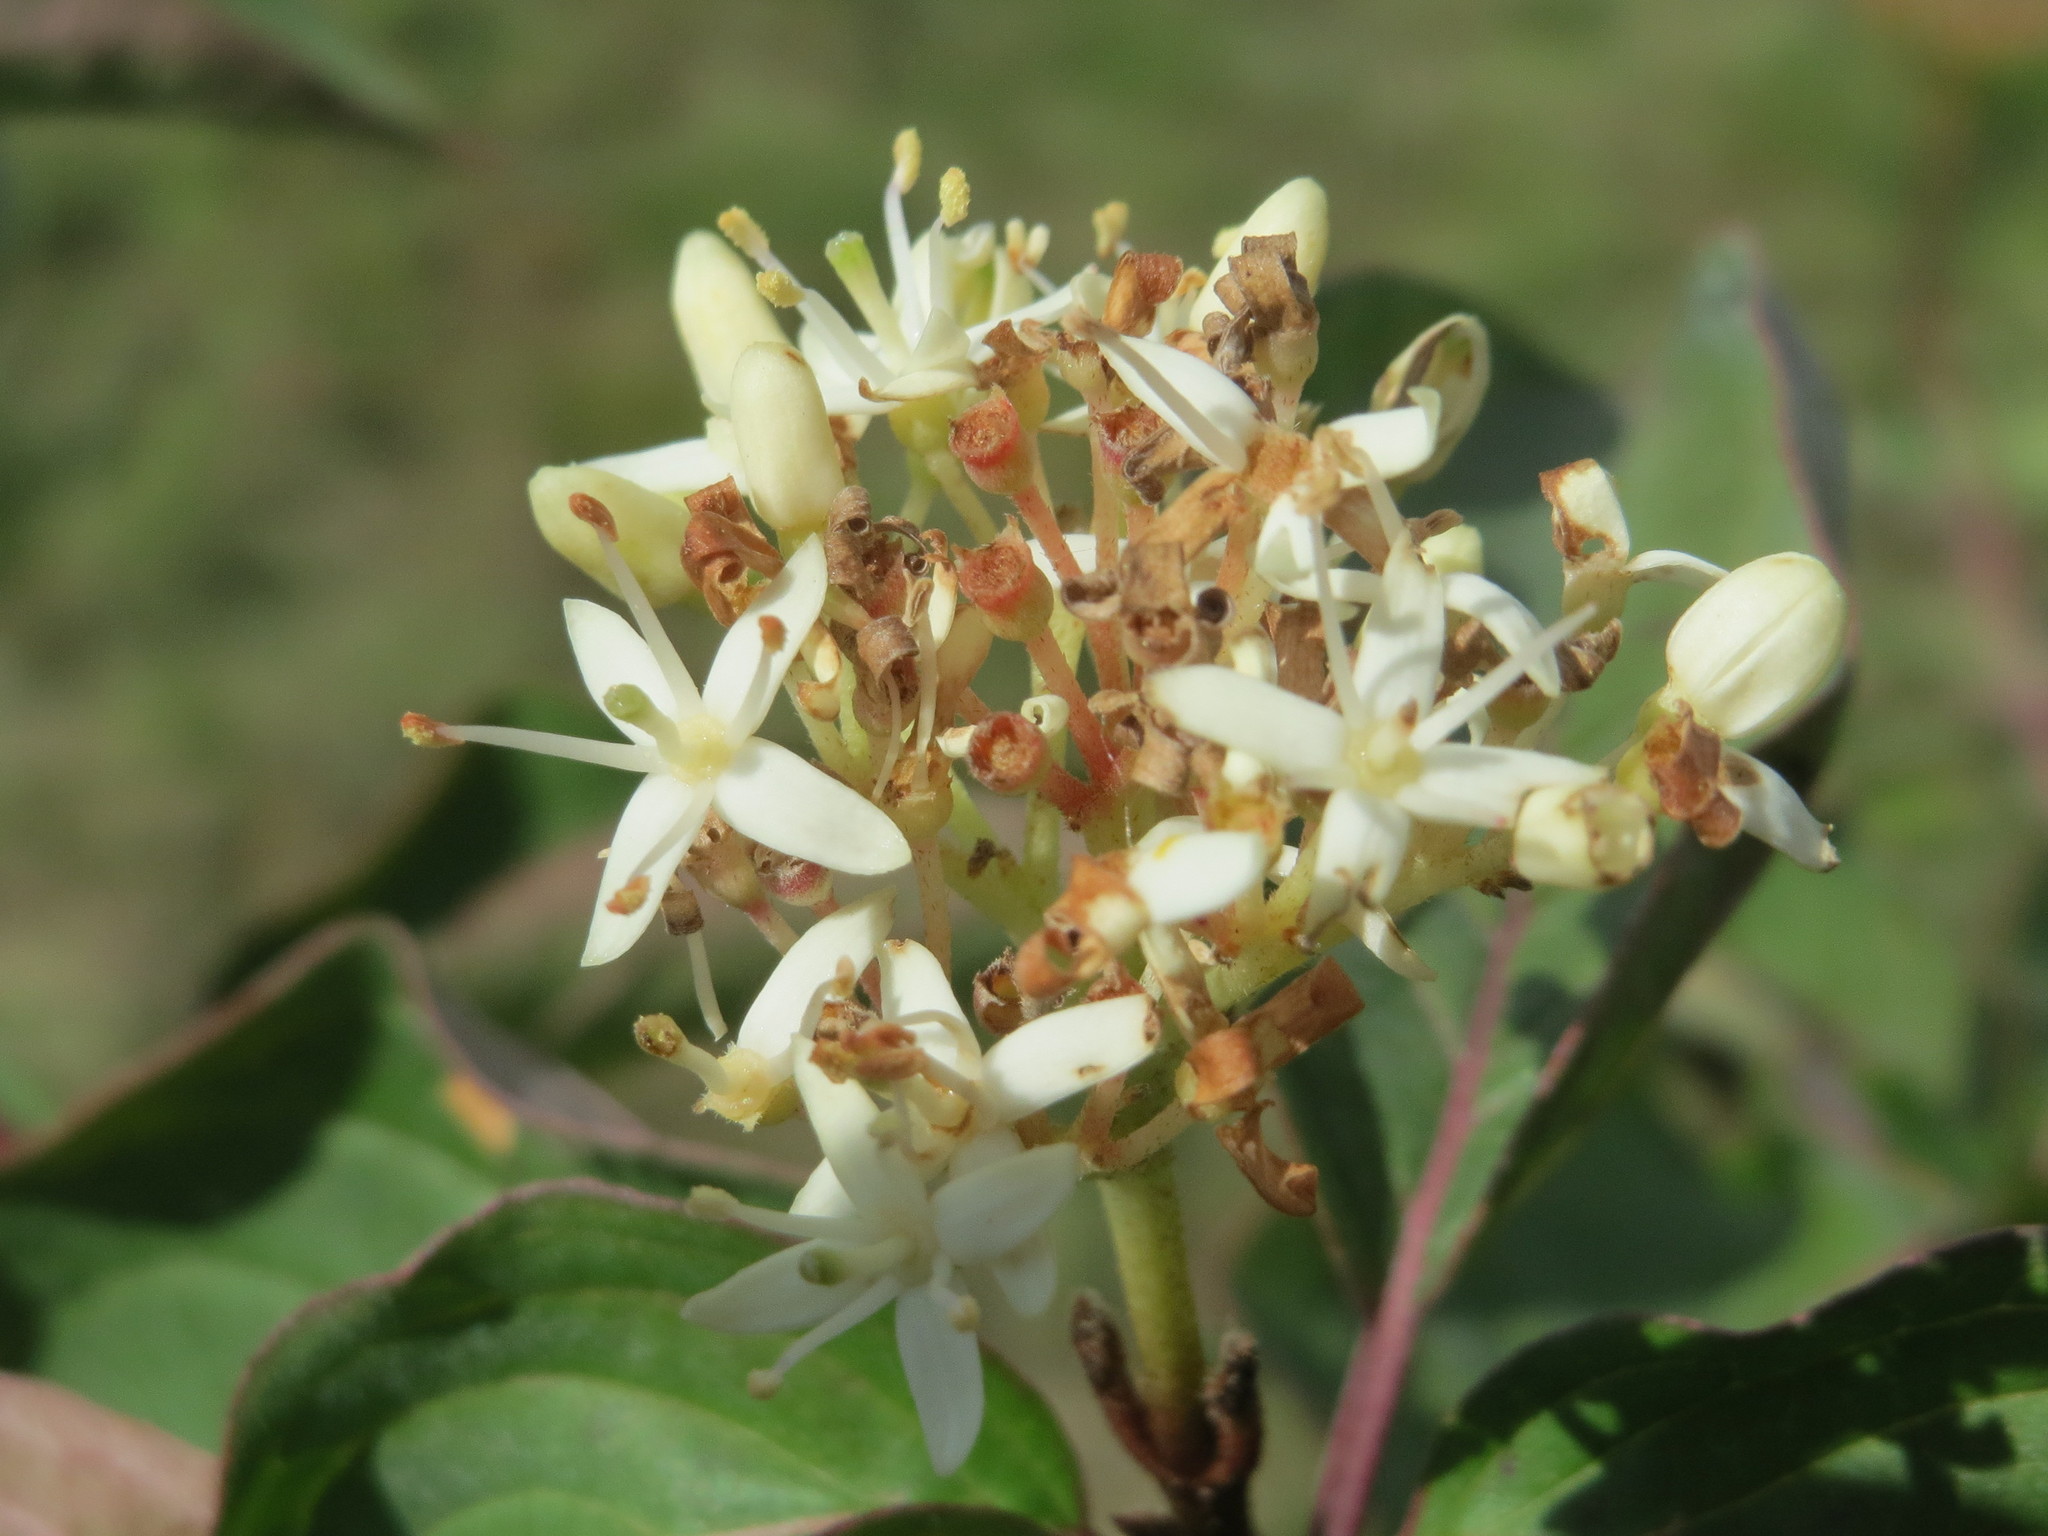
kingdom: Plantae
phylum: Tracheophyta
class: Magnoliopsida
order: Cornales
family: Cornaceae
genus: Cornus
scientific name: Cornus sanguinea
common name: Dogwood
